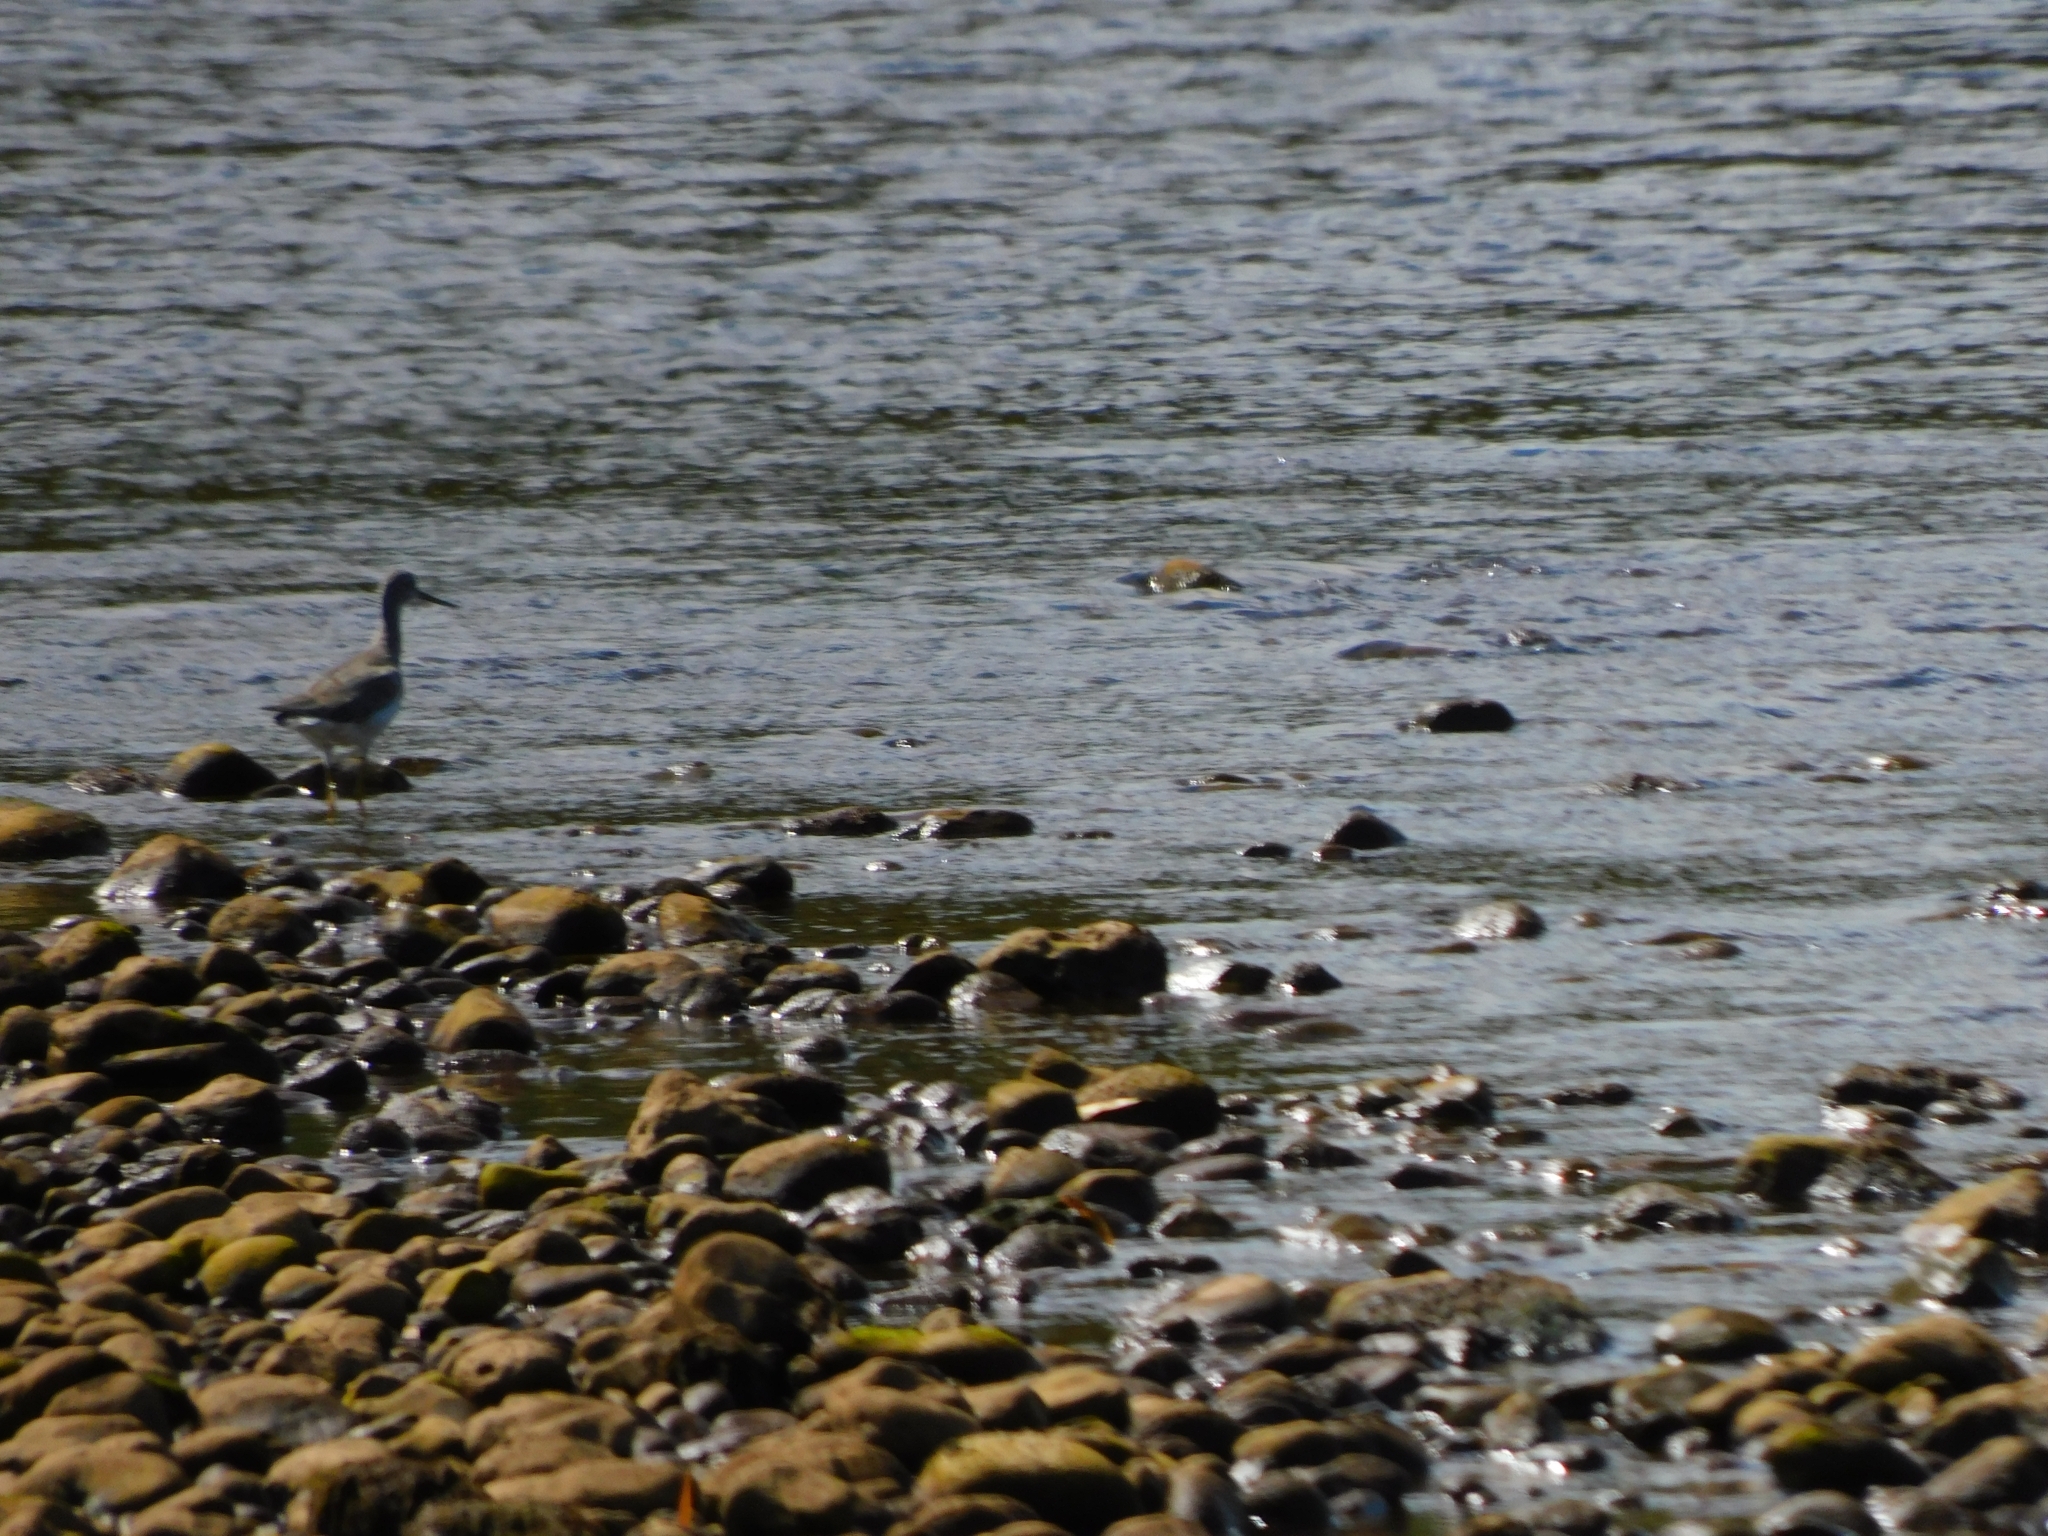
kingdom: Animalia
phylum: Chordata
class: Aves
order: Charadriiformes
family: Scolopacidae
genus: Tringa
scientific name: Tringa melanoleuca
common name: Greater yellowlegs
